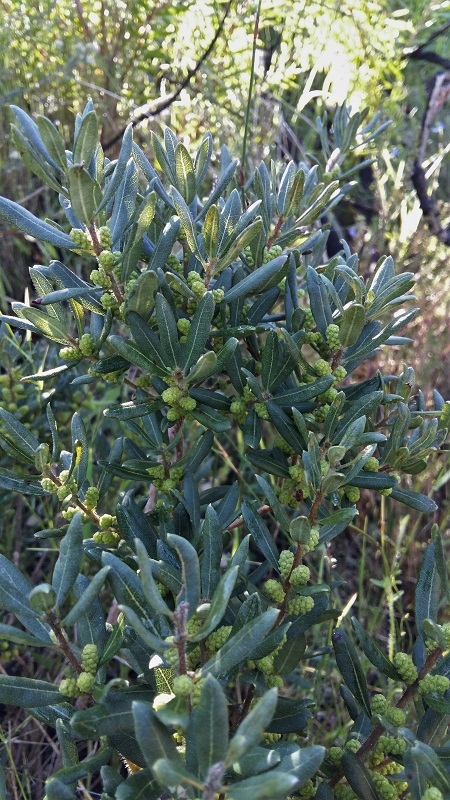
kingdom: Plantae
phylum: Tracheophyta
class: Magnoliopsida
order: Fagales
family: Myricaceae
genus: Morella
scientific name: Morella humilis
